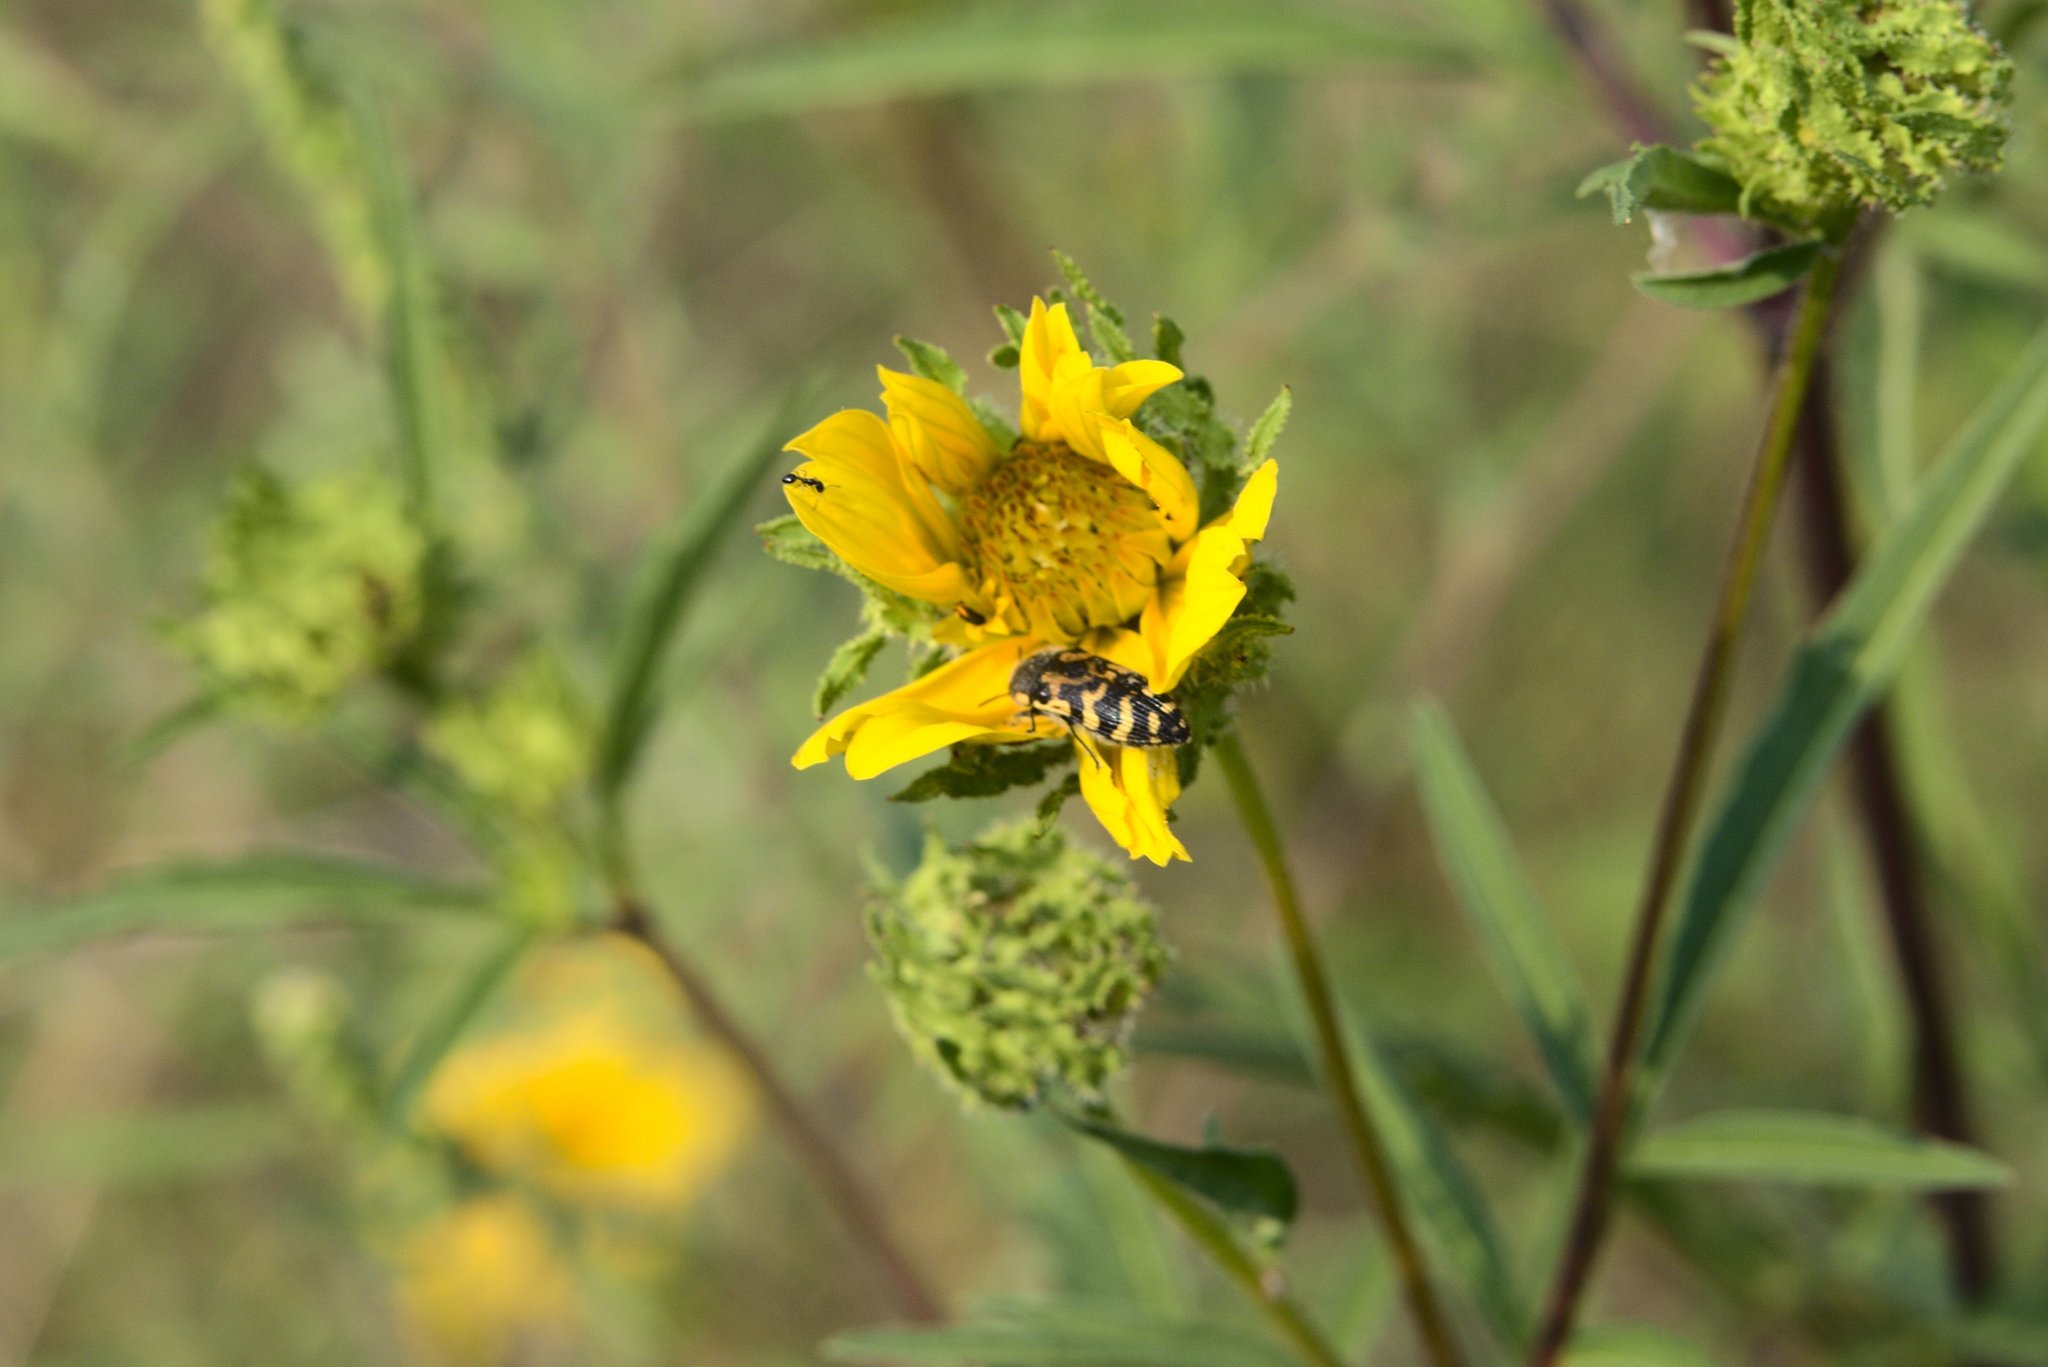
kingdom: Animalia
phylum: Arthropoda
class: Insecta
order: Coleoptera
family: Buprestidae
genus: Acmaeodera
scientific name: Acmaeodera mixta
